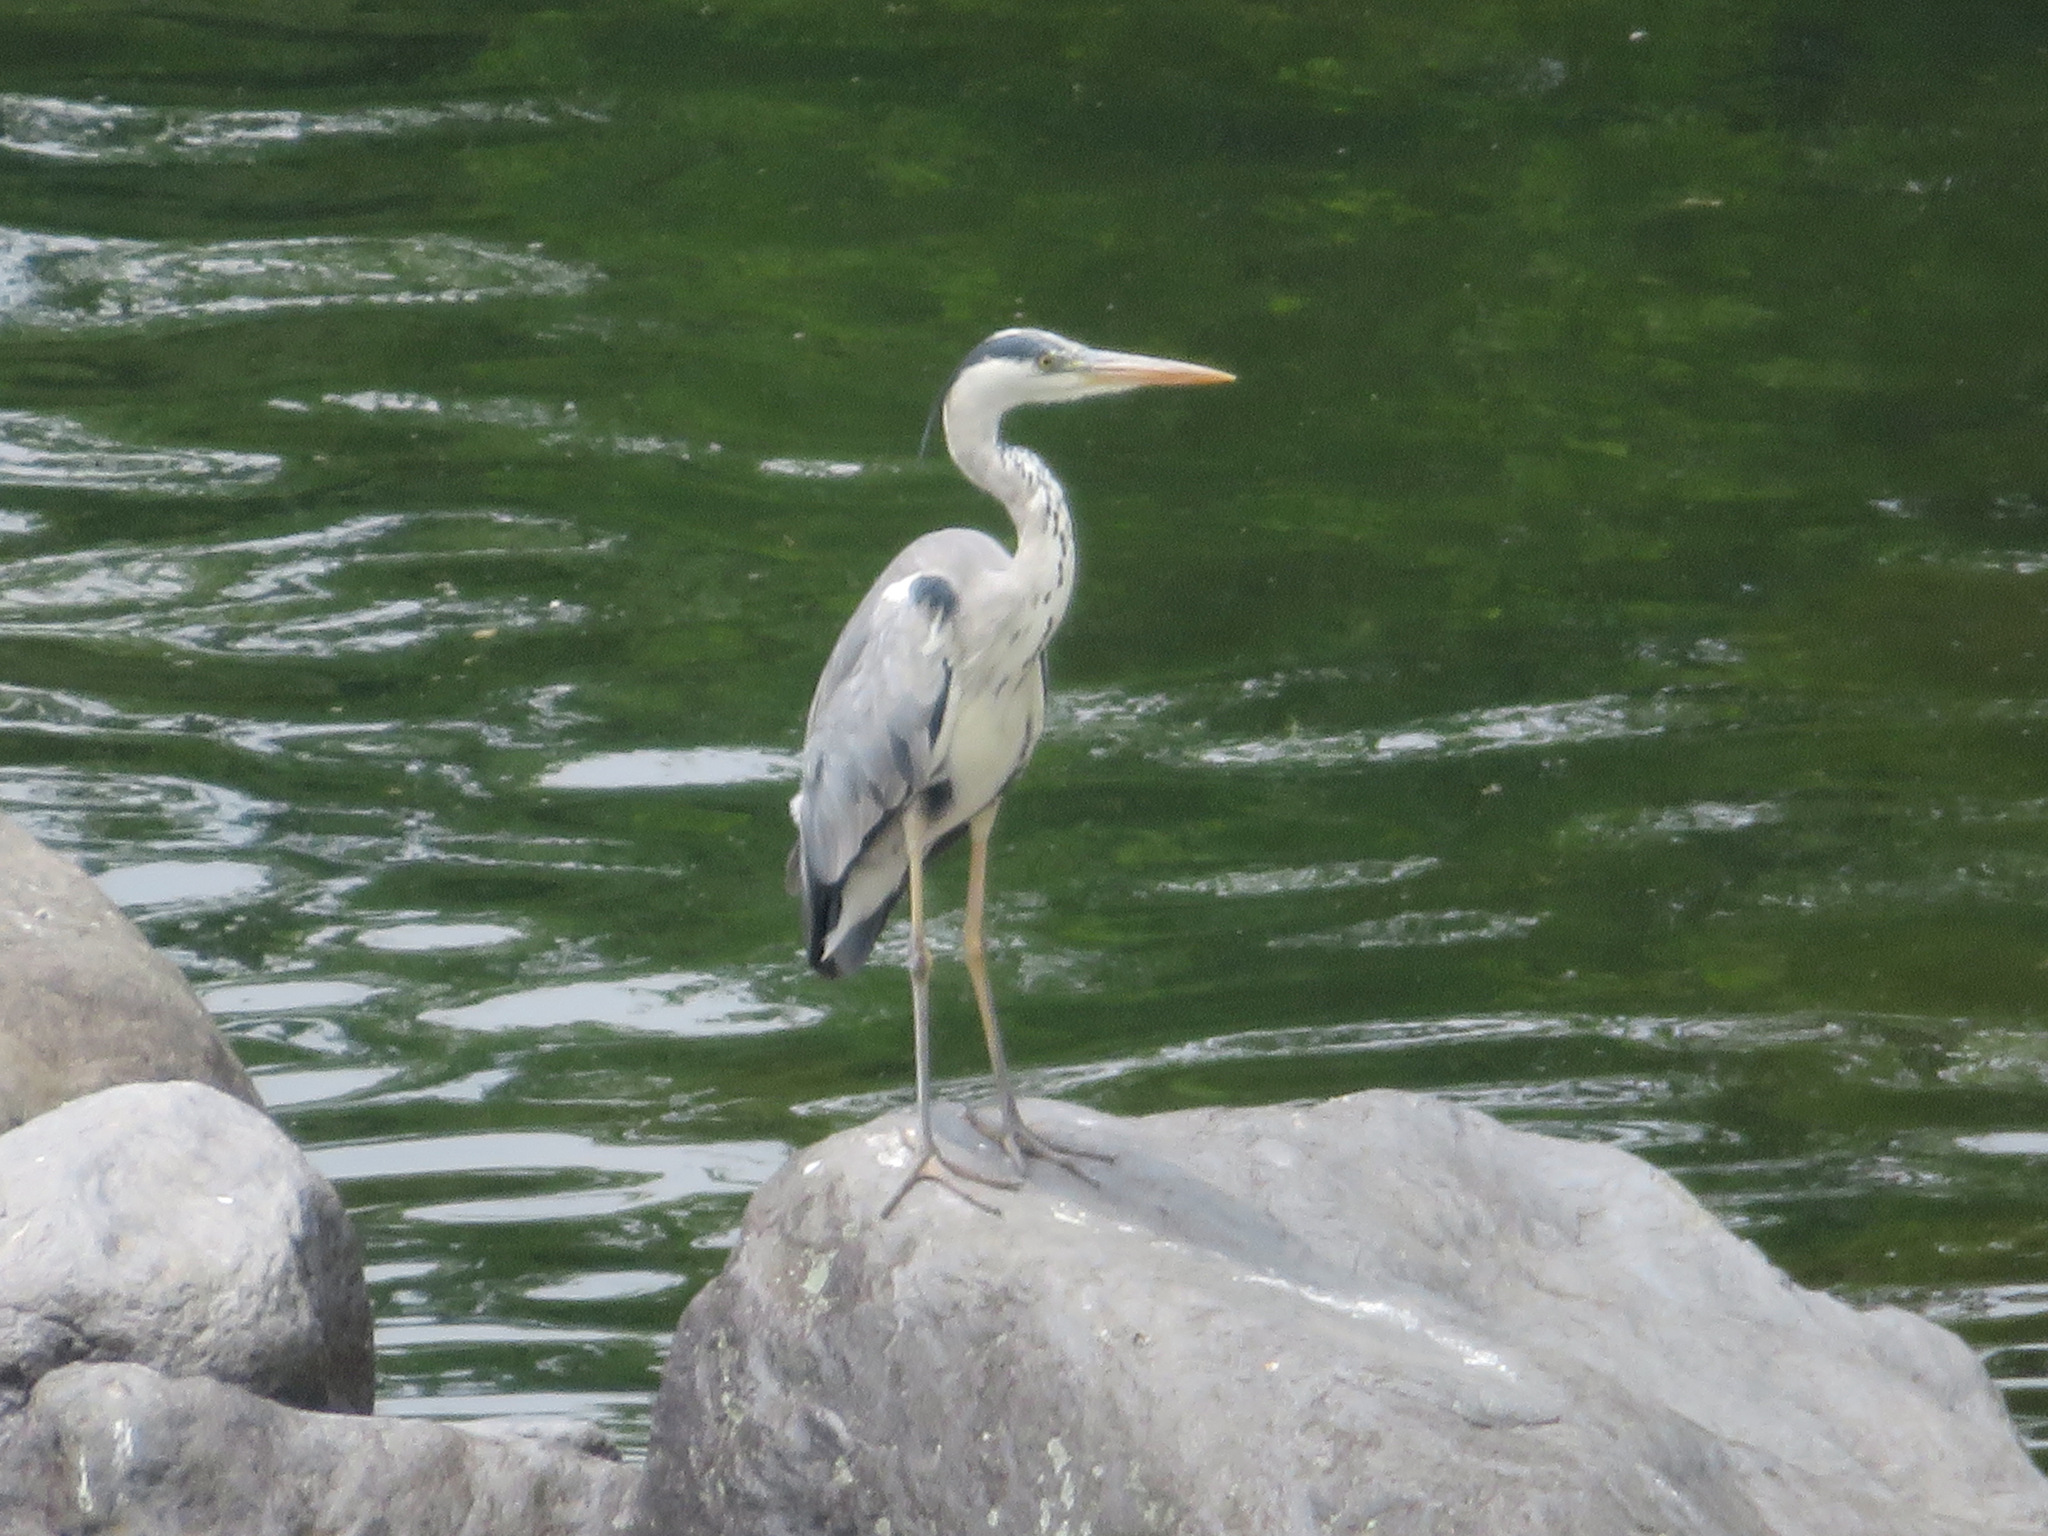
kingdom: Animalia
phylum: Chordata
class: Aves
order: Pelecaniformes
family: Ardeidae
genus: Ardea
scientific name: Ardea cinerea
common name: Grey heron
